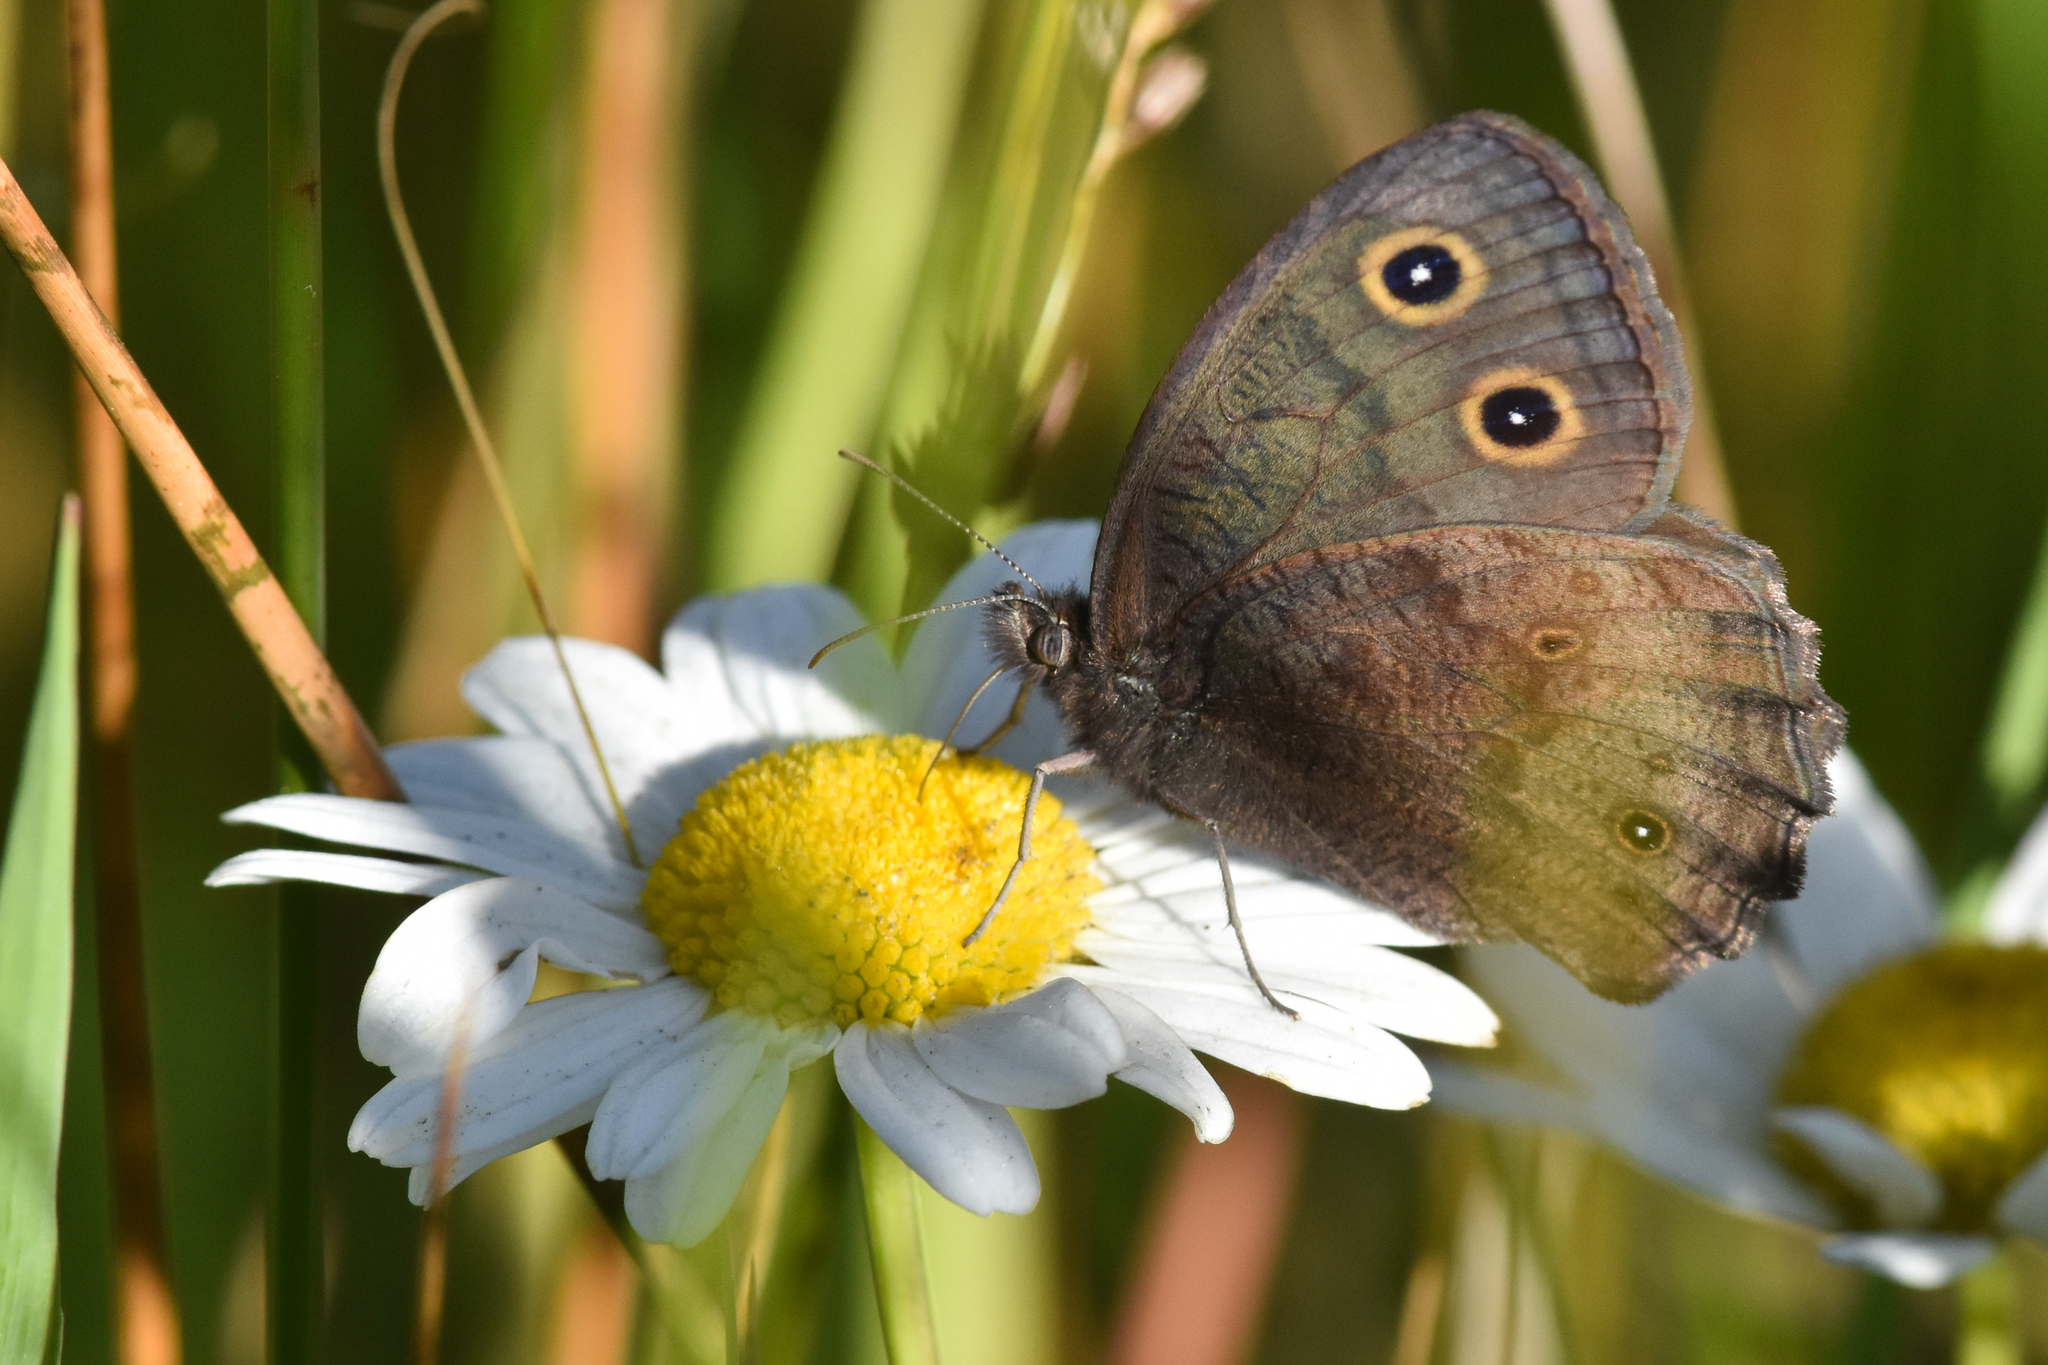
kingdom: Animalia
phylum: Arthropoda
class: Insecta
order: Lepidoptera
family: Nymphalidae
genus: Cercyonis
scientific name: Cercyonis pegala
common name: Common wood-nymph
